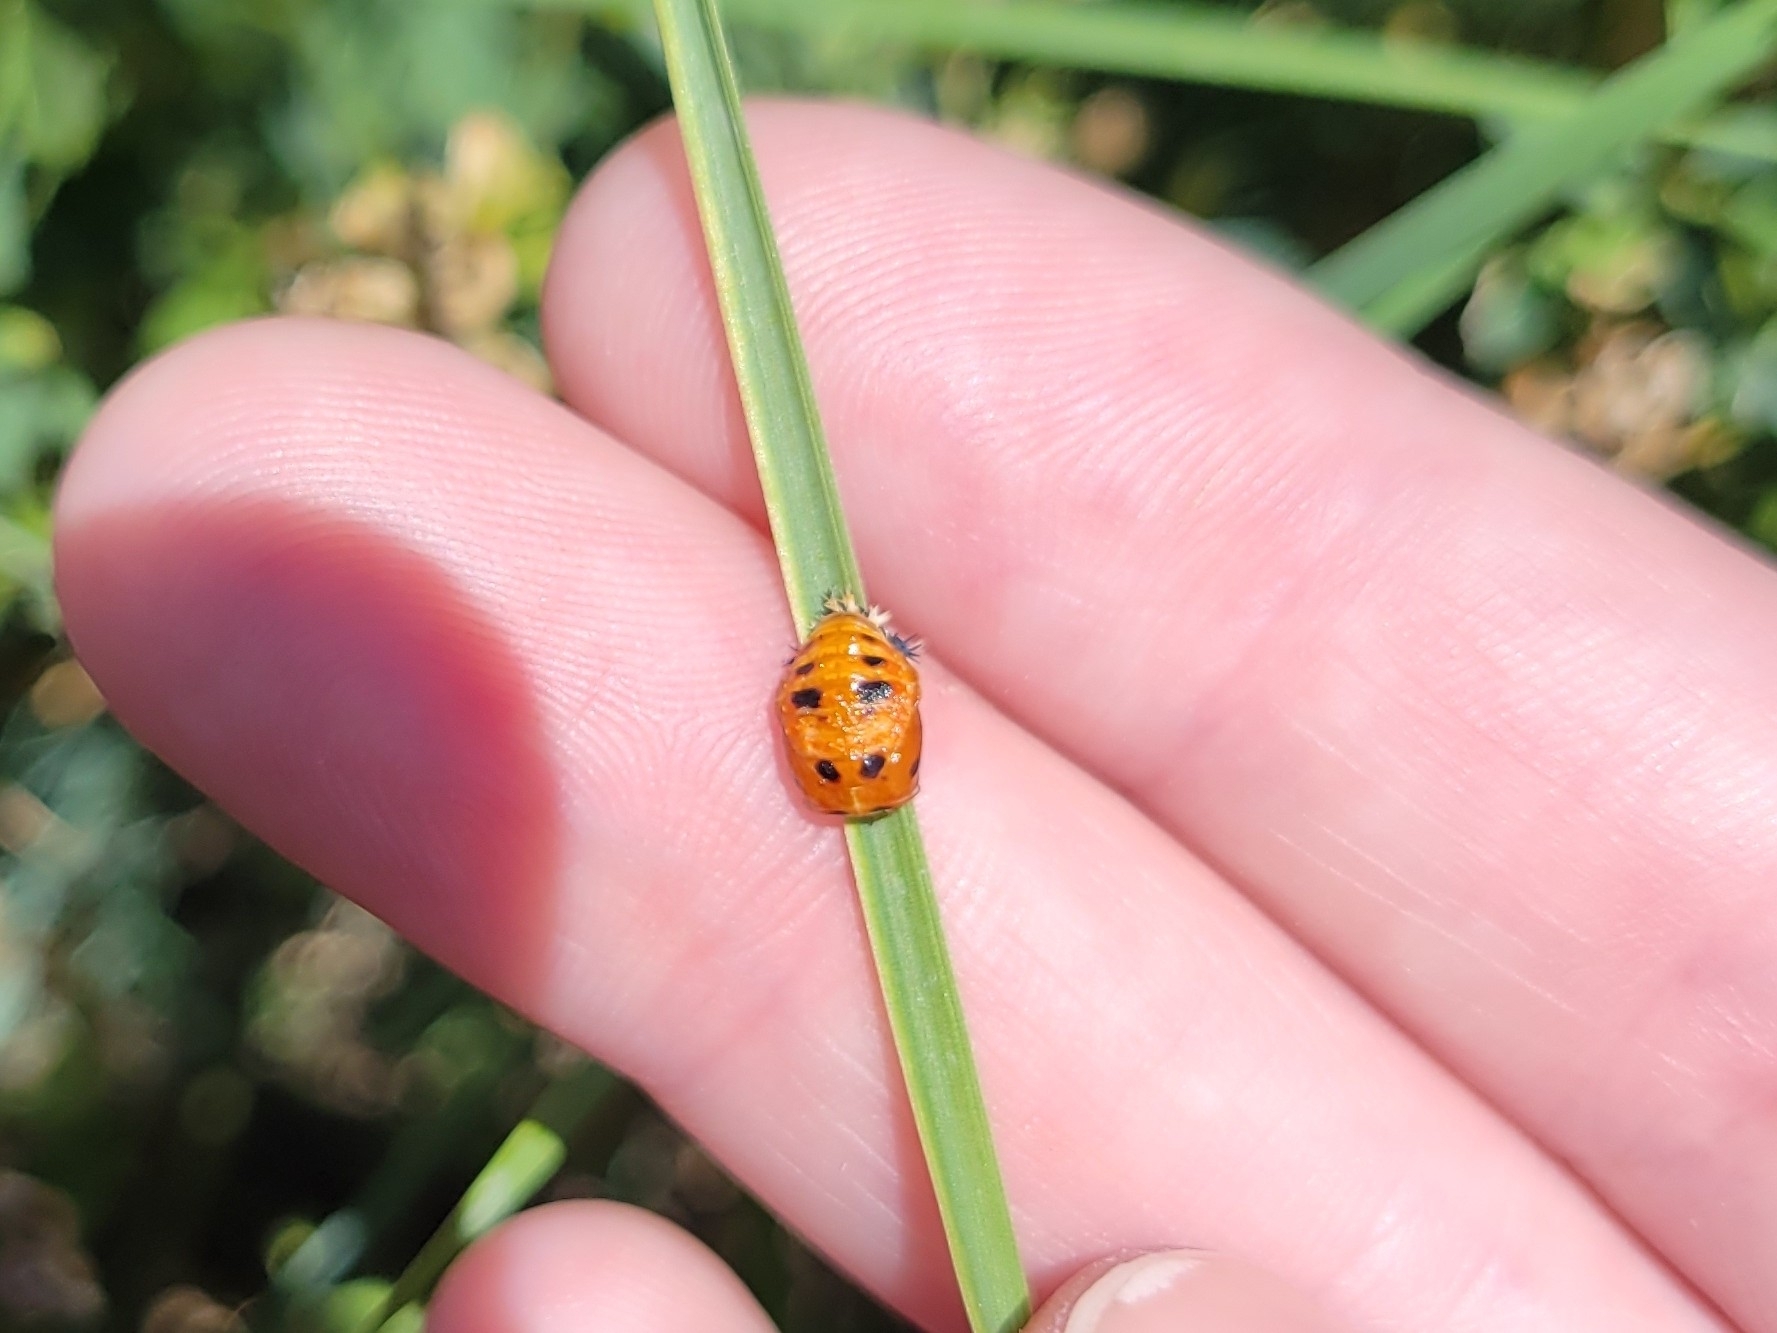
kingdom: Animalia
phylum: Arthropoda
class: Insecta
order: Coleoptera
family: Coccinellidae
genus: Harmonia
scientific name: Harmonia axyridis
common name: Harlequin ladybird
